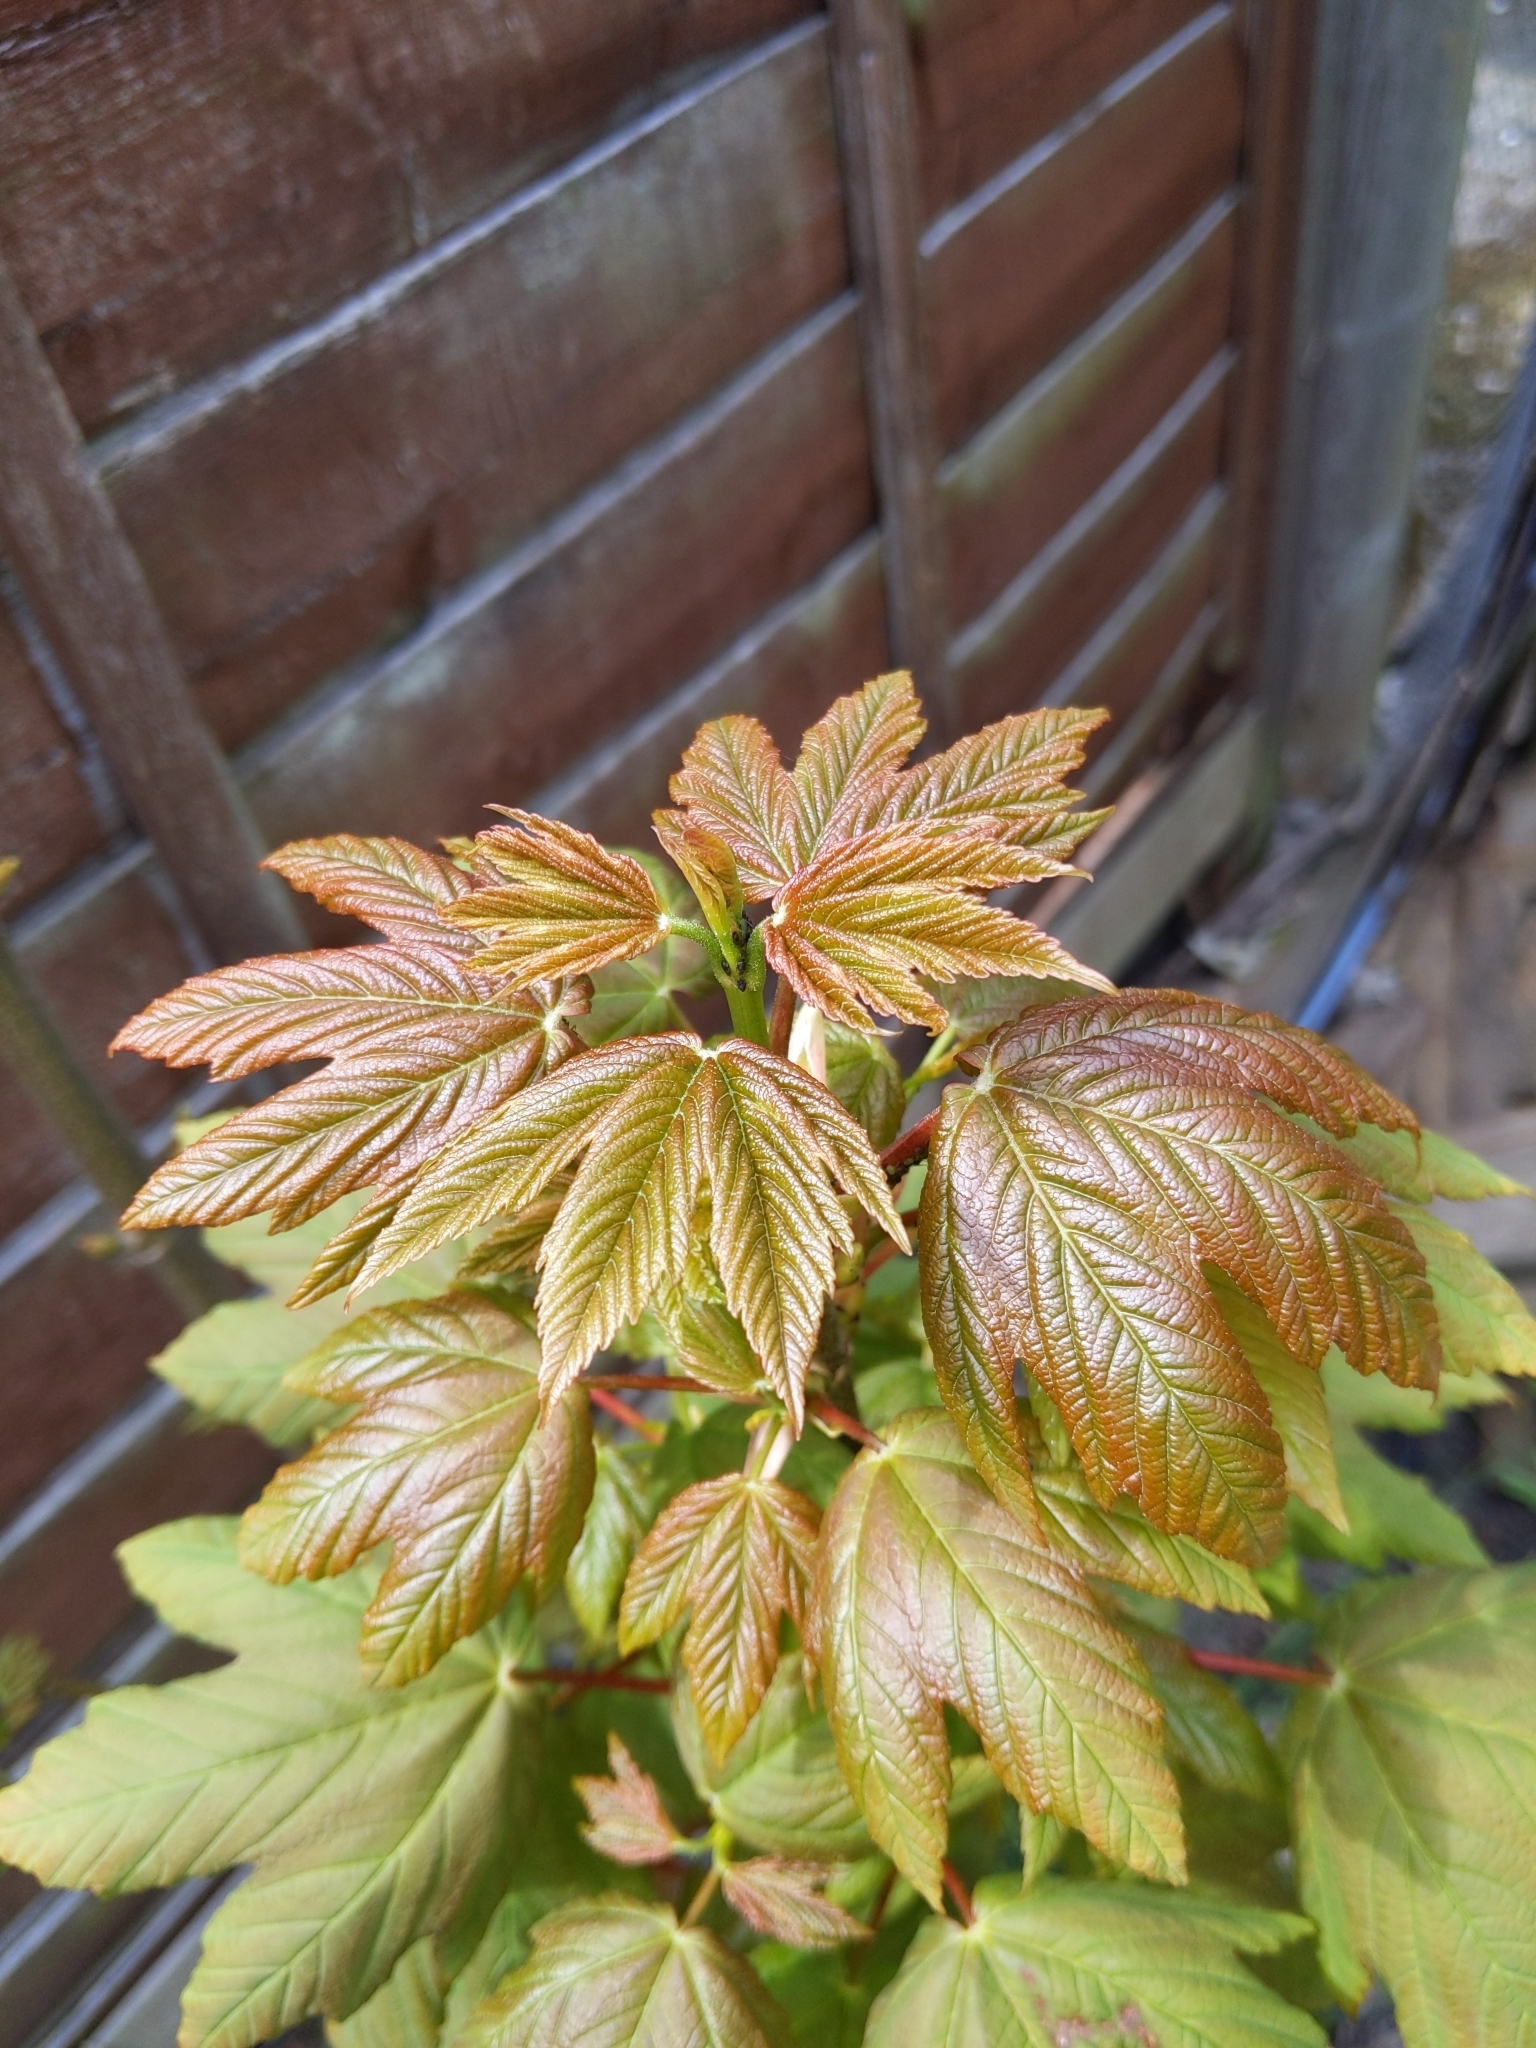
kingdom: Plantae
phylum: Tracheophyta
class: Magnoliopsida
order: Sapindales
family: Sapindaceae
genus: Acer
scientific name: Acer pseudoplatanus
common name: Sycamore
